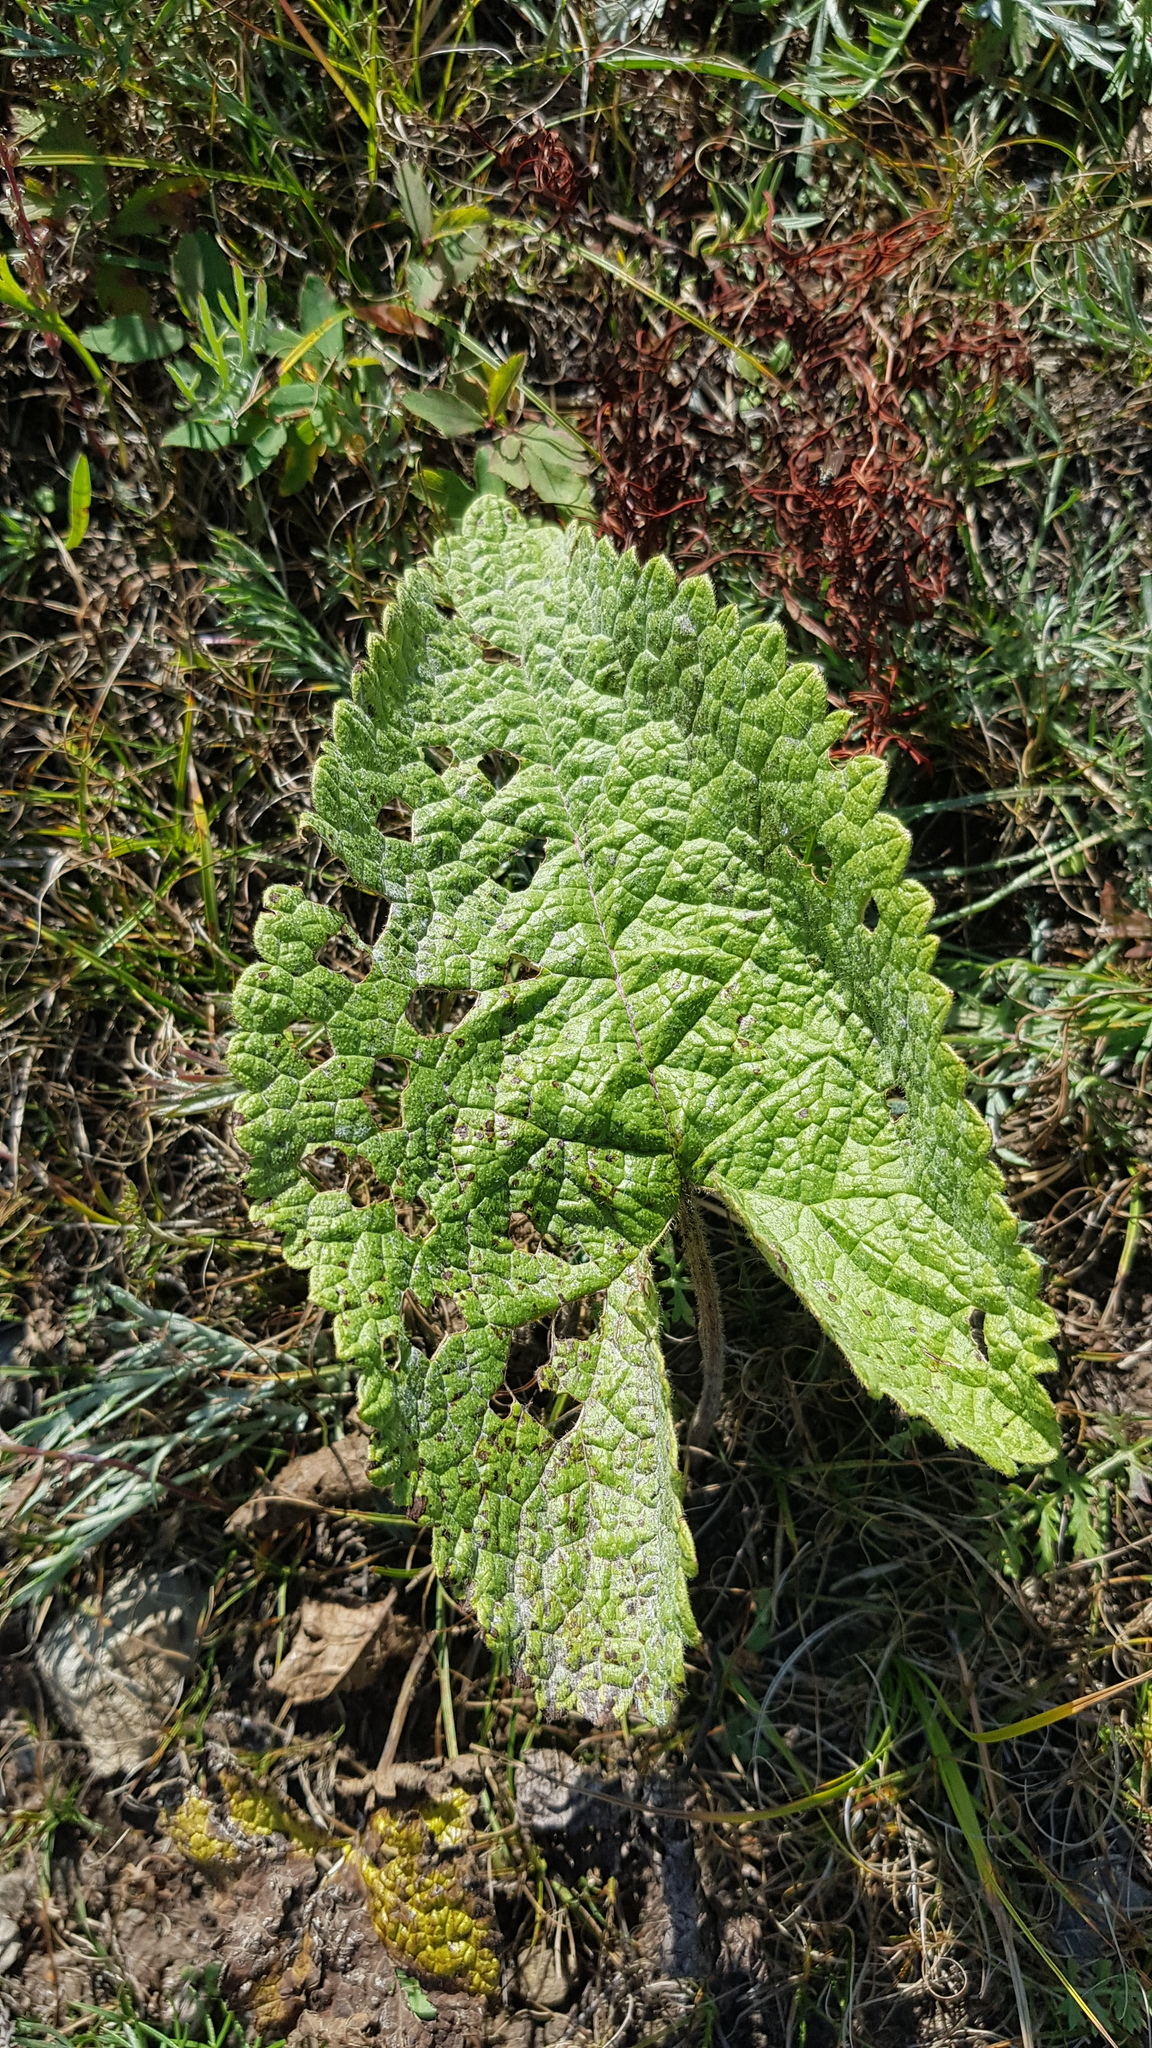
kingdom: Plantae
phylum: Tracheophyta
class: Magnoliopsida
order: Lamiales
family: Lamiaceae
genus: Phlomoides
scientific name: Phlomoides tuberosa
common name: Tuberous jerusalem sage
